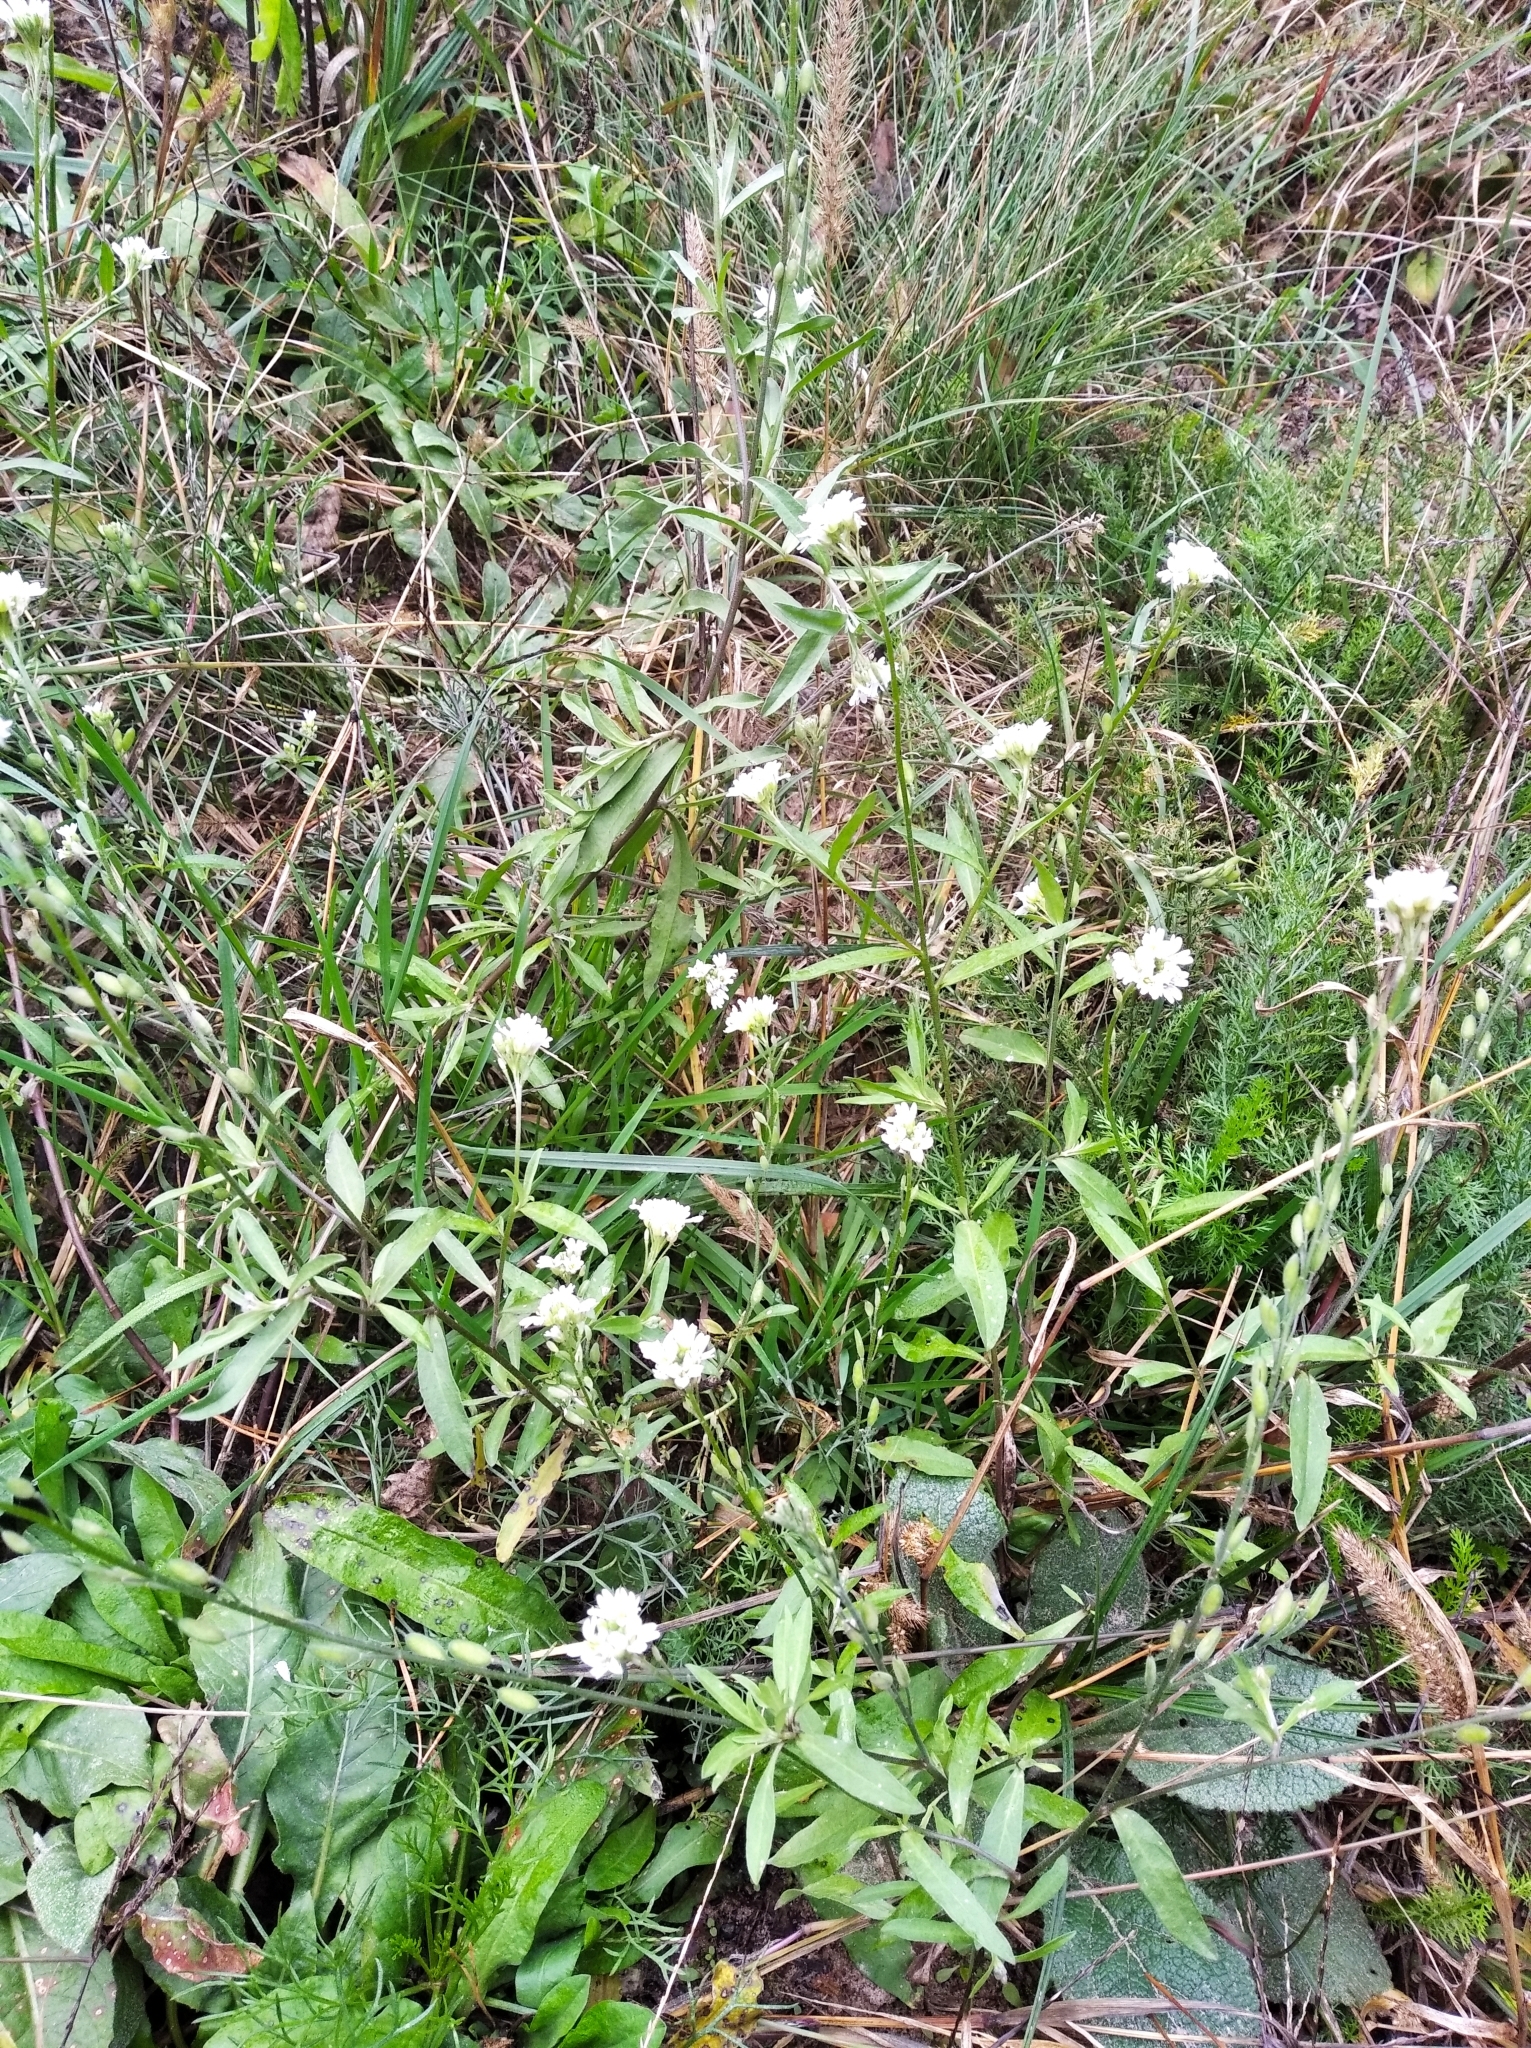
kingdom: Plantae
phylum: Tracheophyta
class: Magnoliopsida
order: Brassicales
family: Brassicaceae
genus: Berteroa
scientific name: Berteroa incana
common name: Hoary alison
